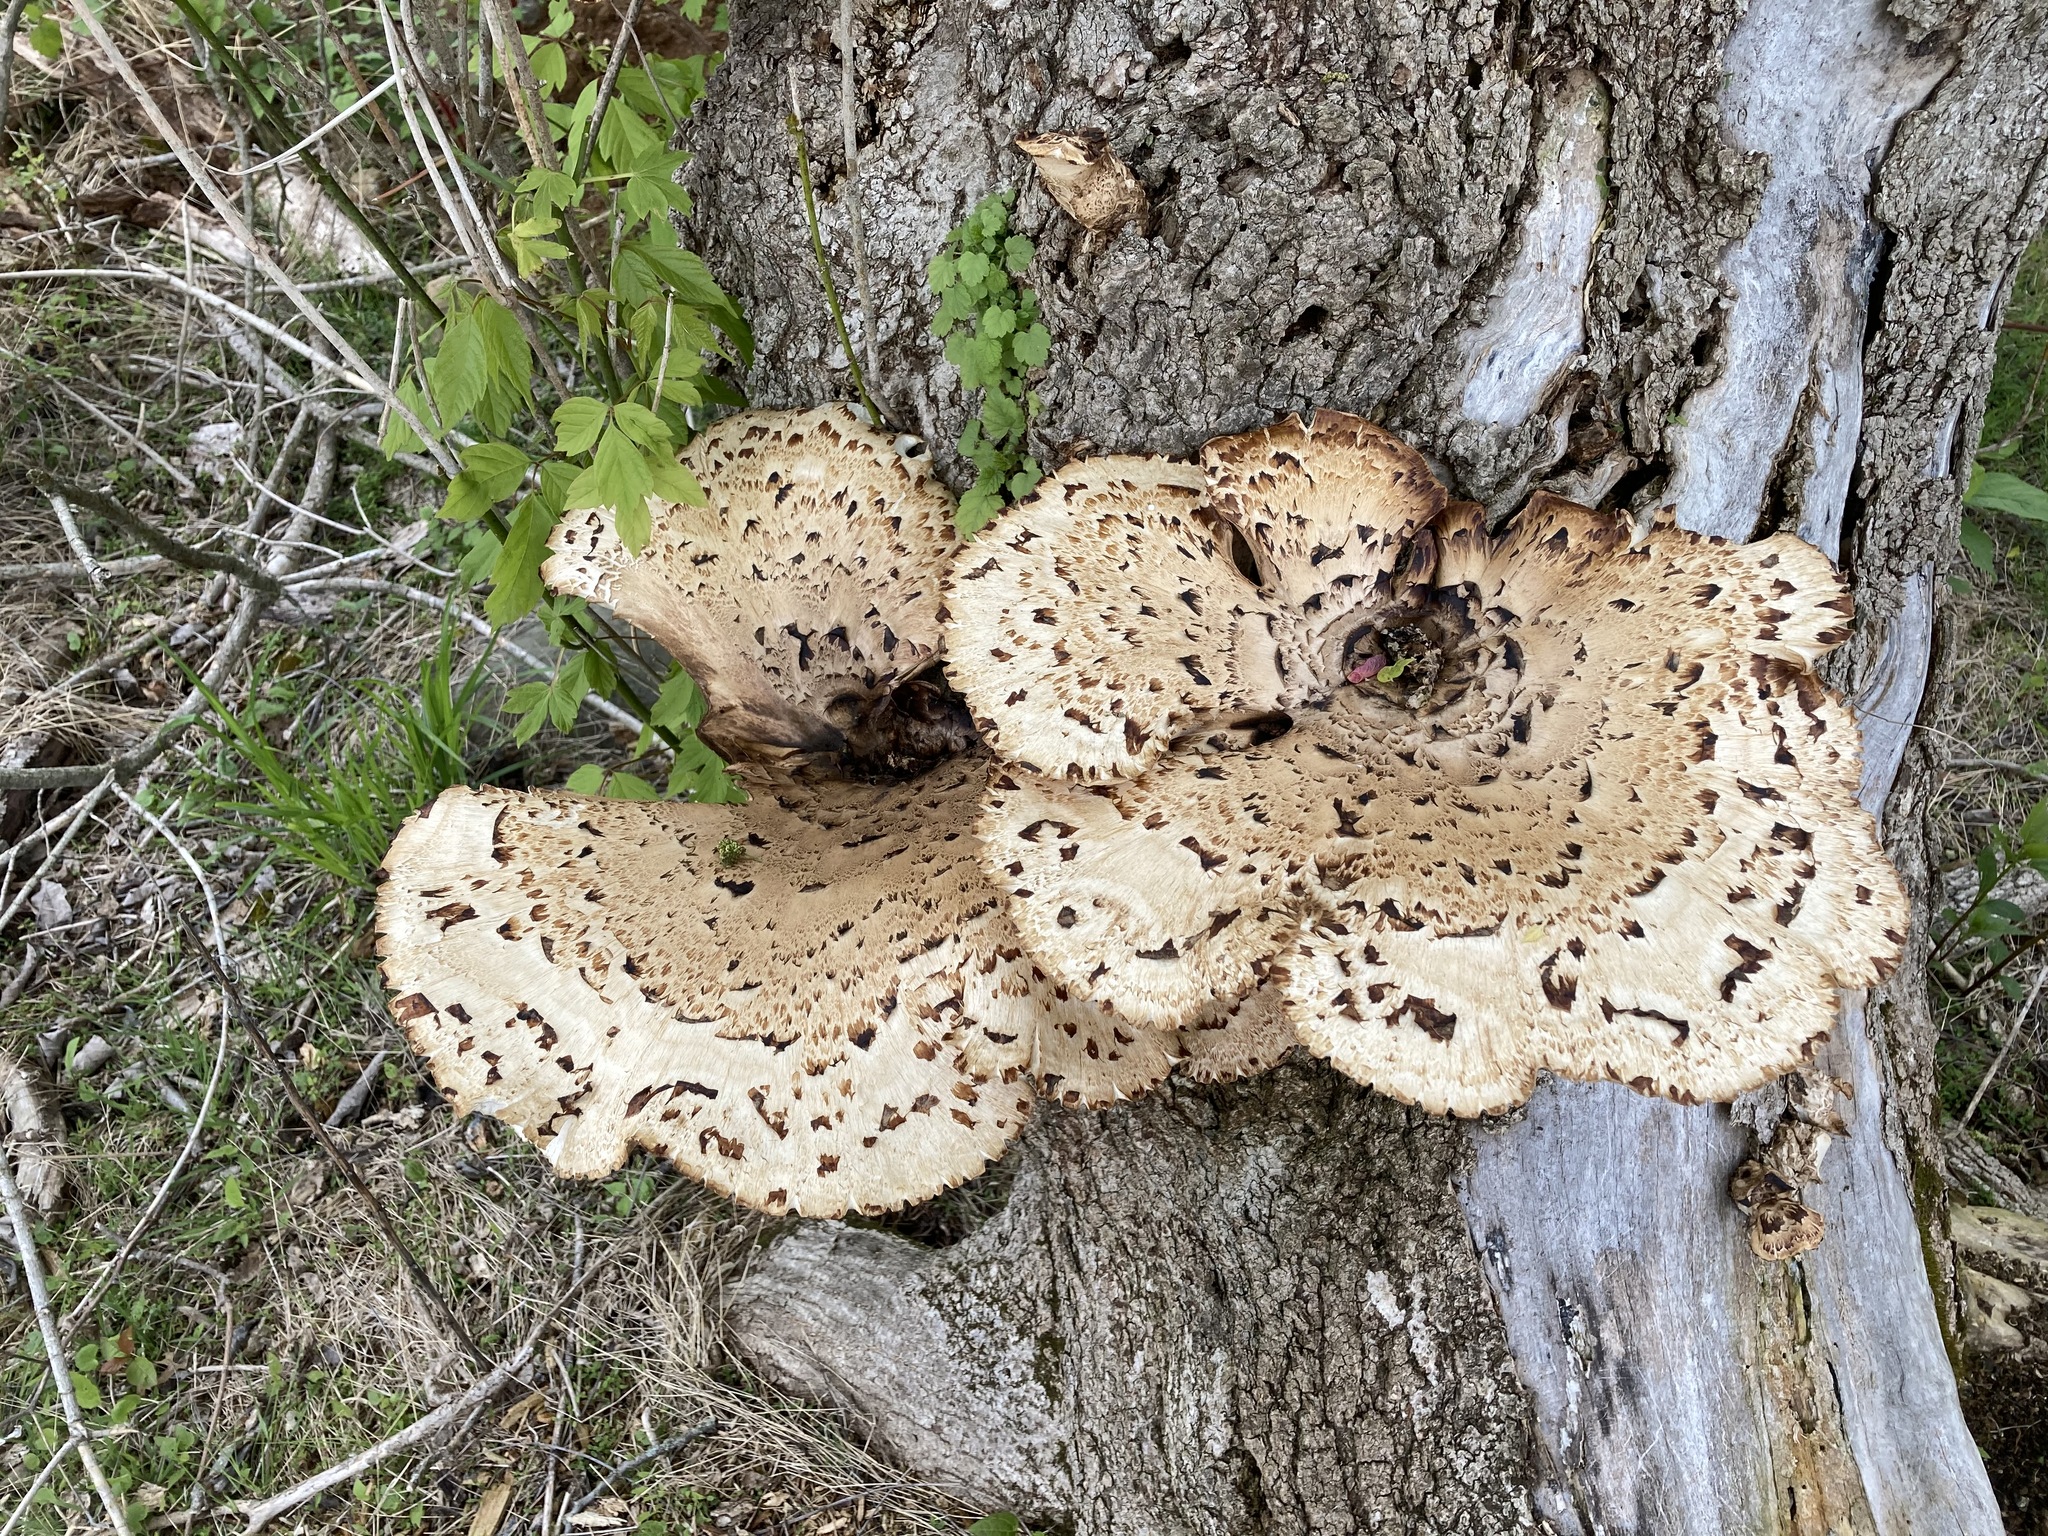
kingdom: Fungi
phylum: Basidiomycota
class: Agaricomycetes
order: Polyporales
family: Polyporaceae
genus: Cerioporus
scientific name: Cerioporus squamosus
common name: Dryad's saddle
